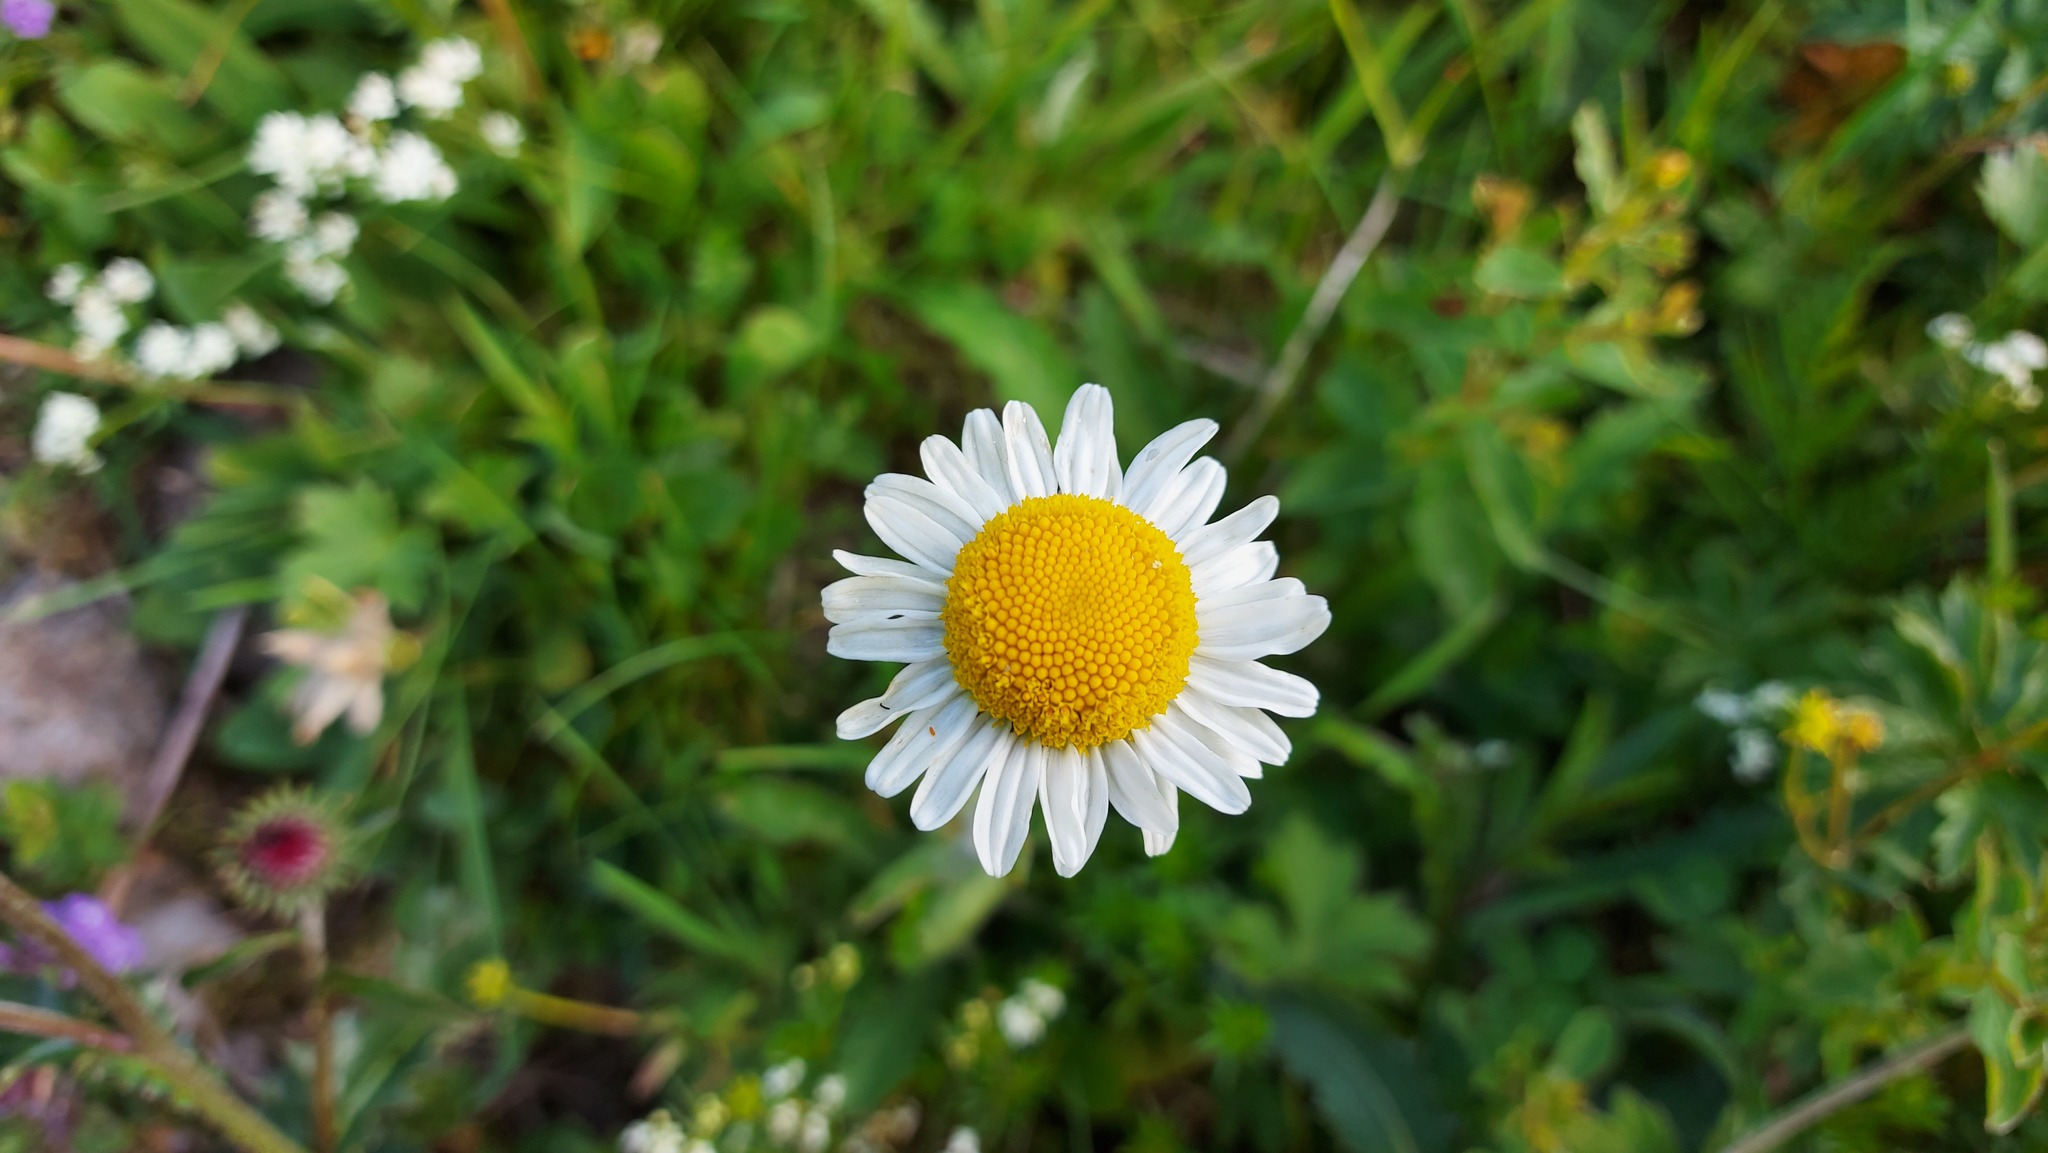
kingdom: Plantae
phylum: Tracheophyta
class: Magnoliopsida
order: Asterales
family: Asteraceae
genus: Leucanthemum
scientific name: Leucanthemum vulgare
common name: Oxeye daisy
